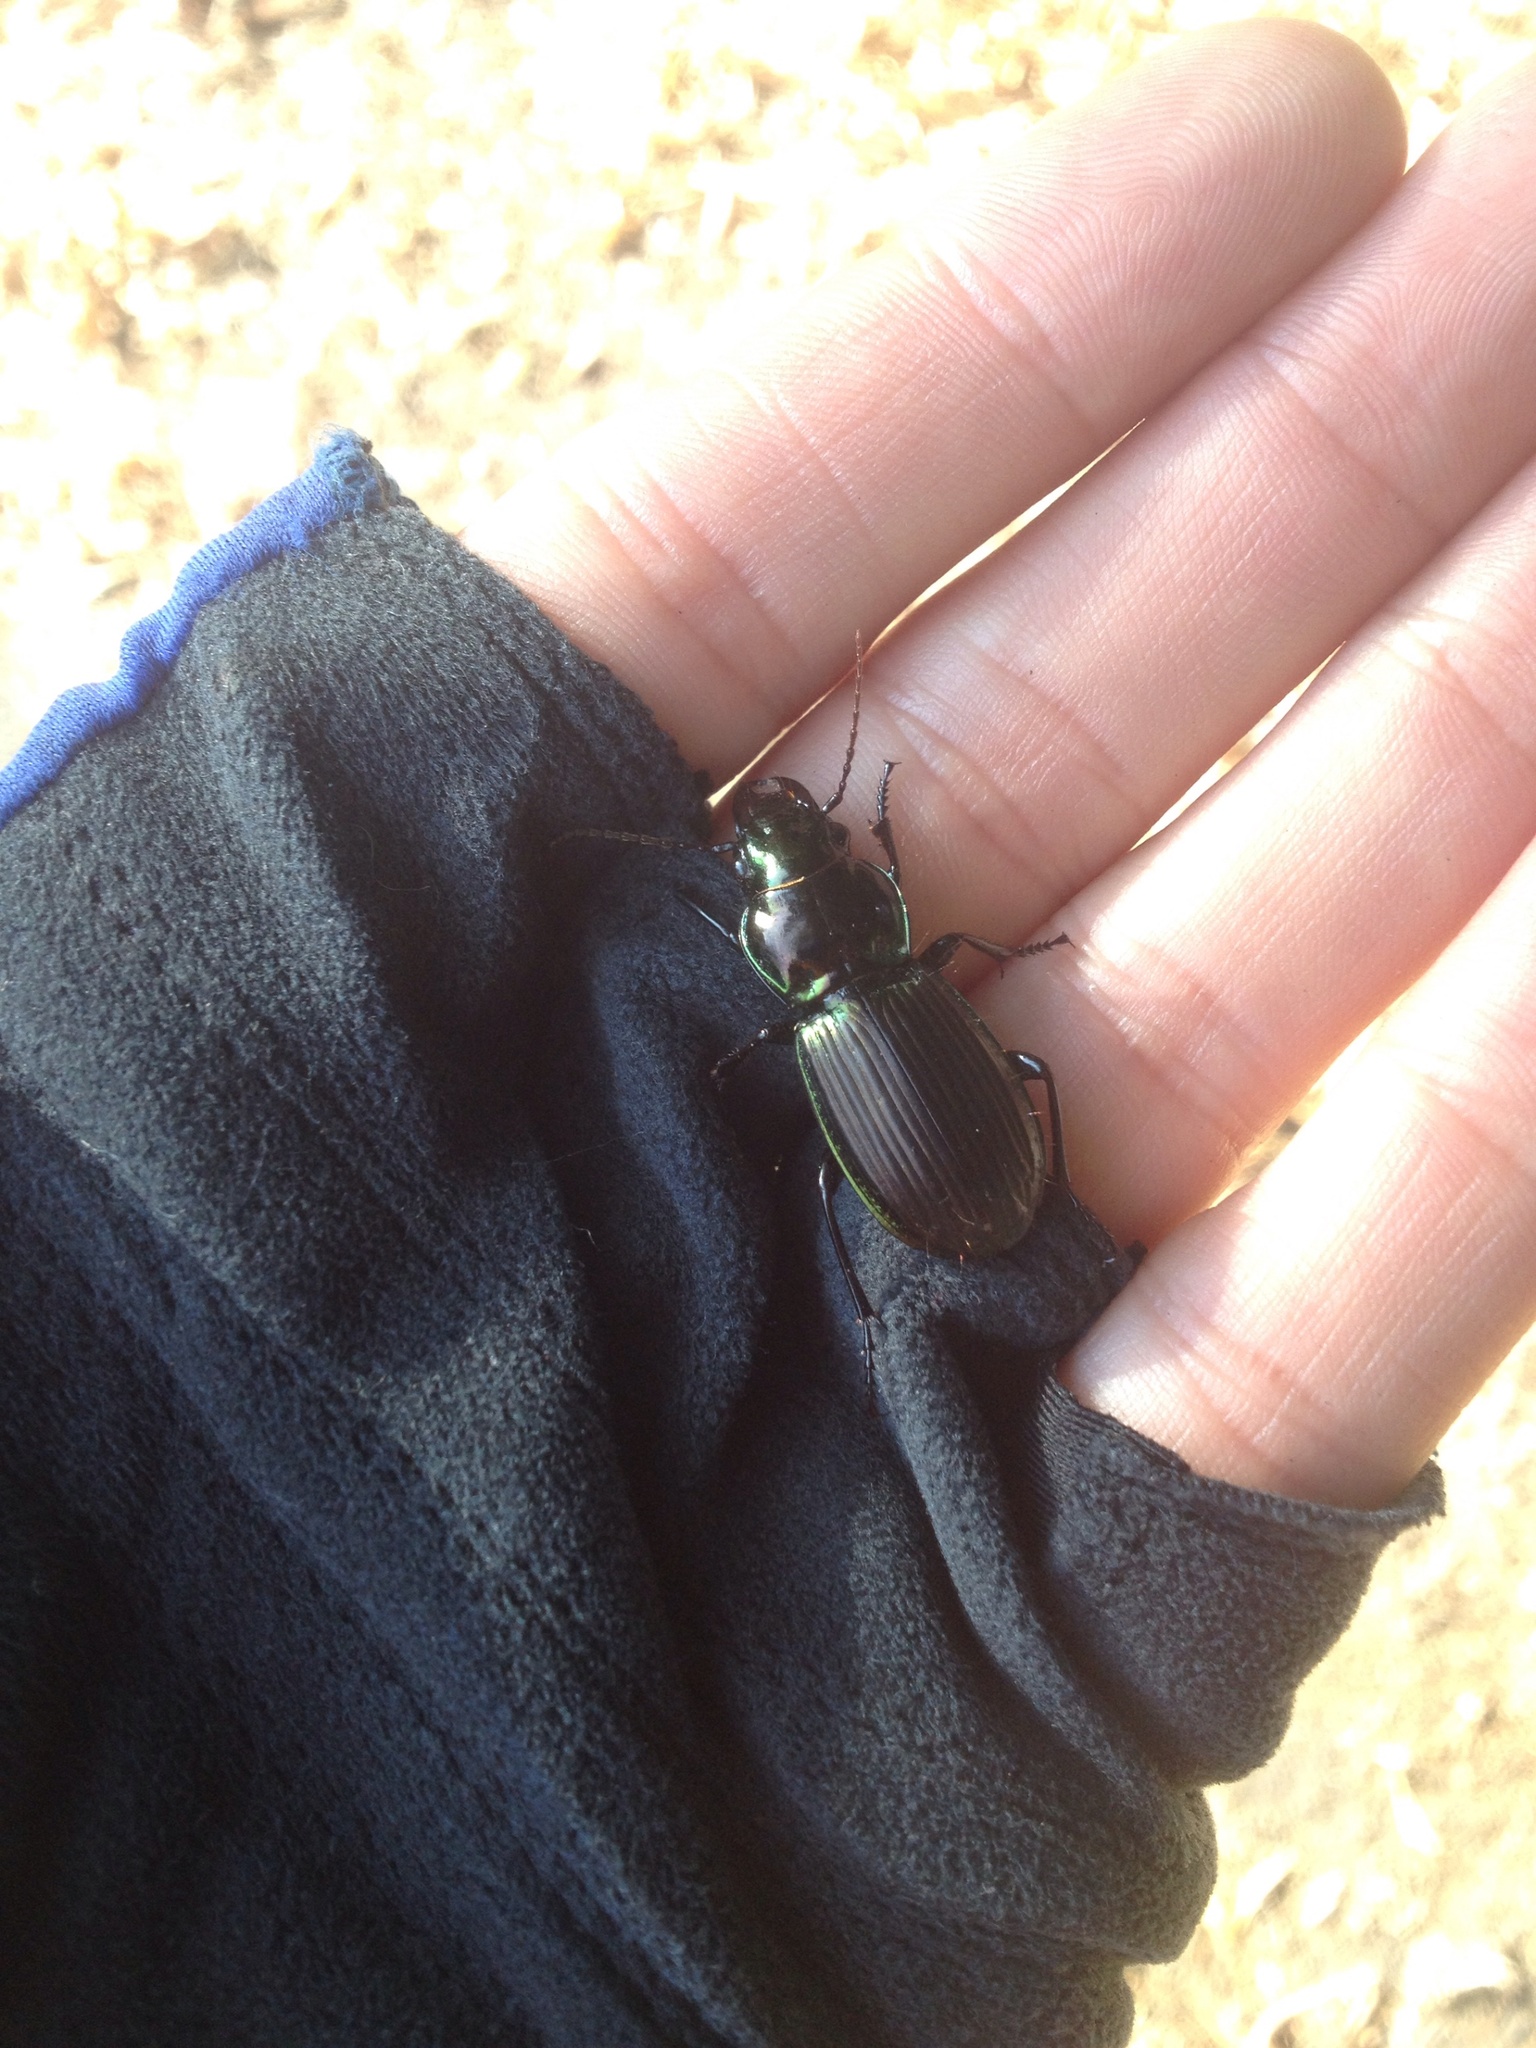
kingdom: Animalia
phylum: Arthropoda
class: Insecta
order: Coleoptera
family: Carabidae
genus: Megadromus
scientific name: Megadromus antarcticus
